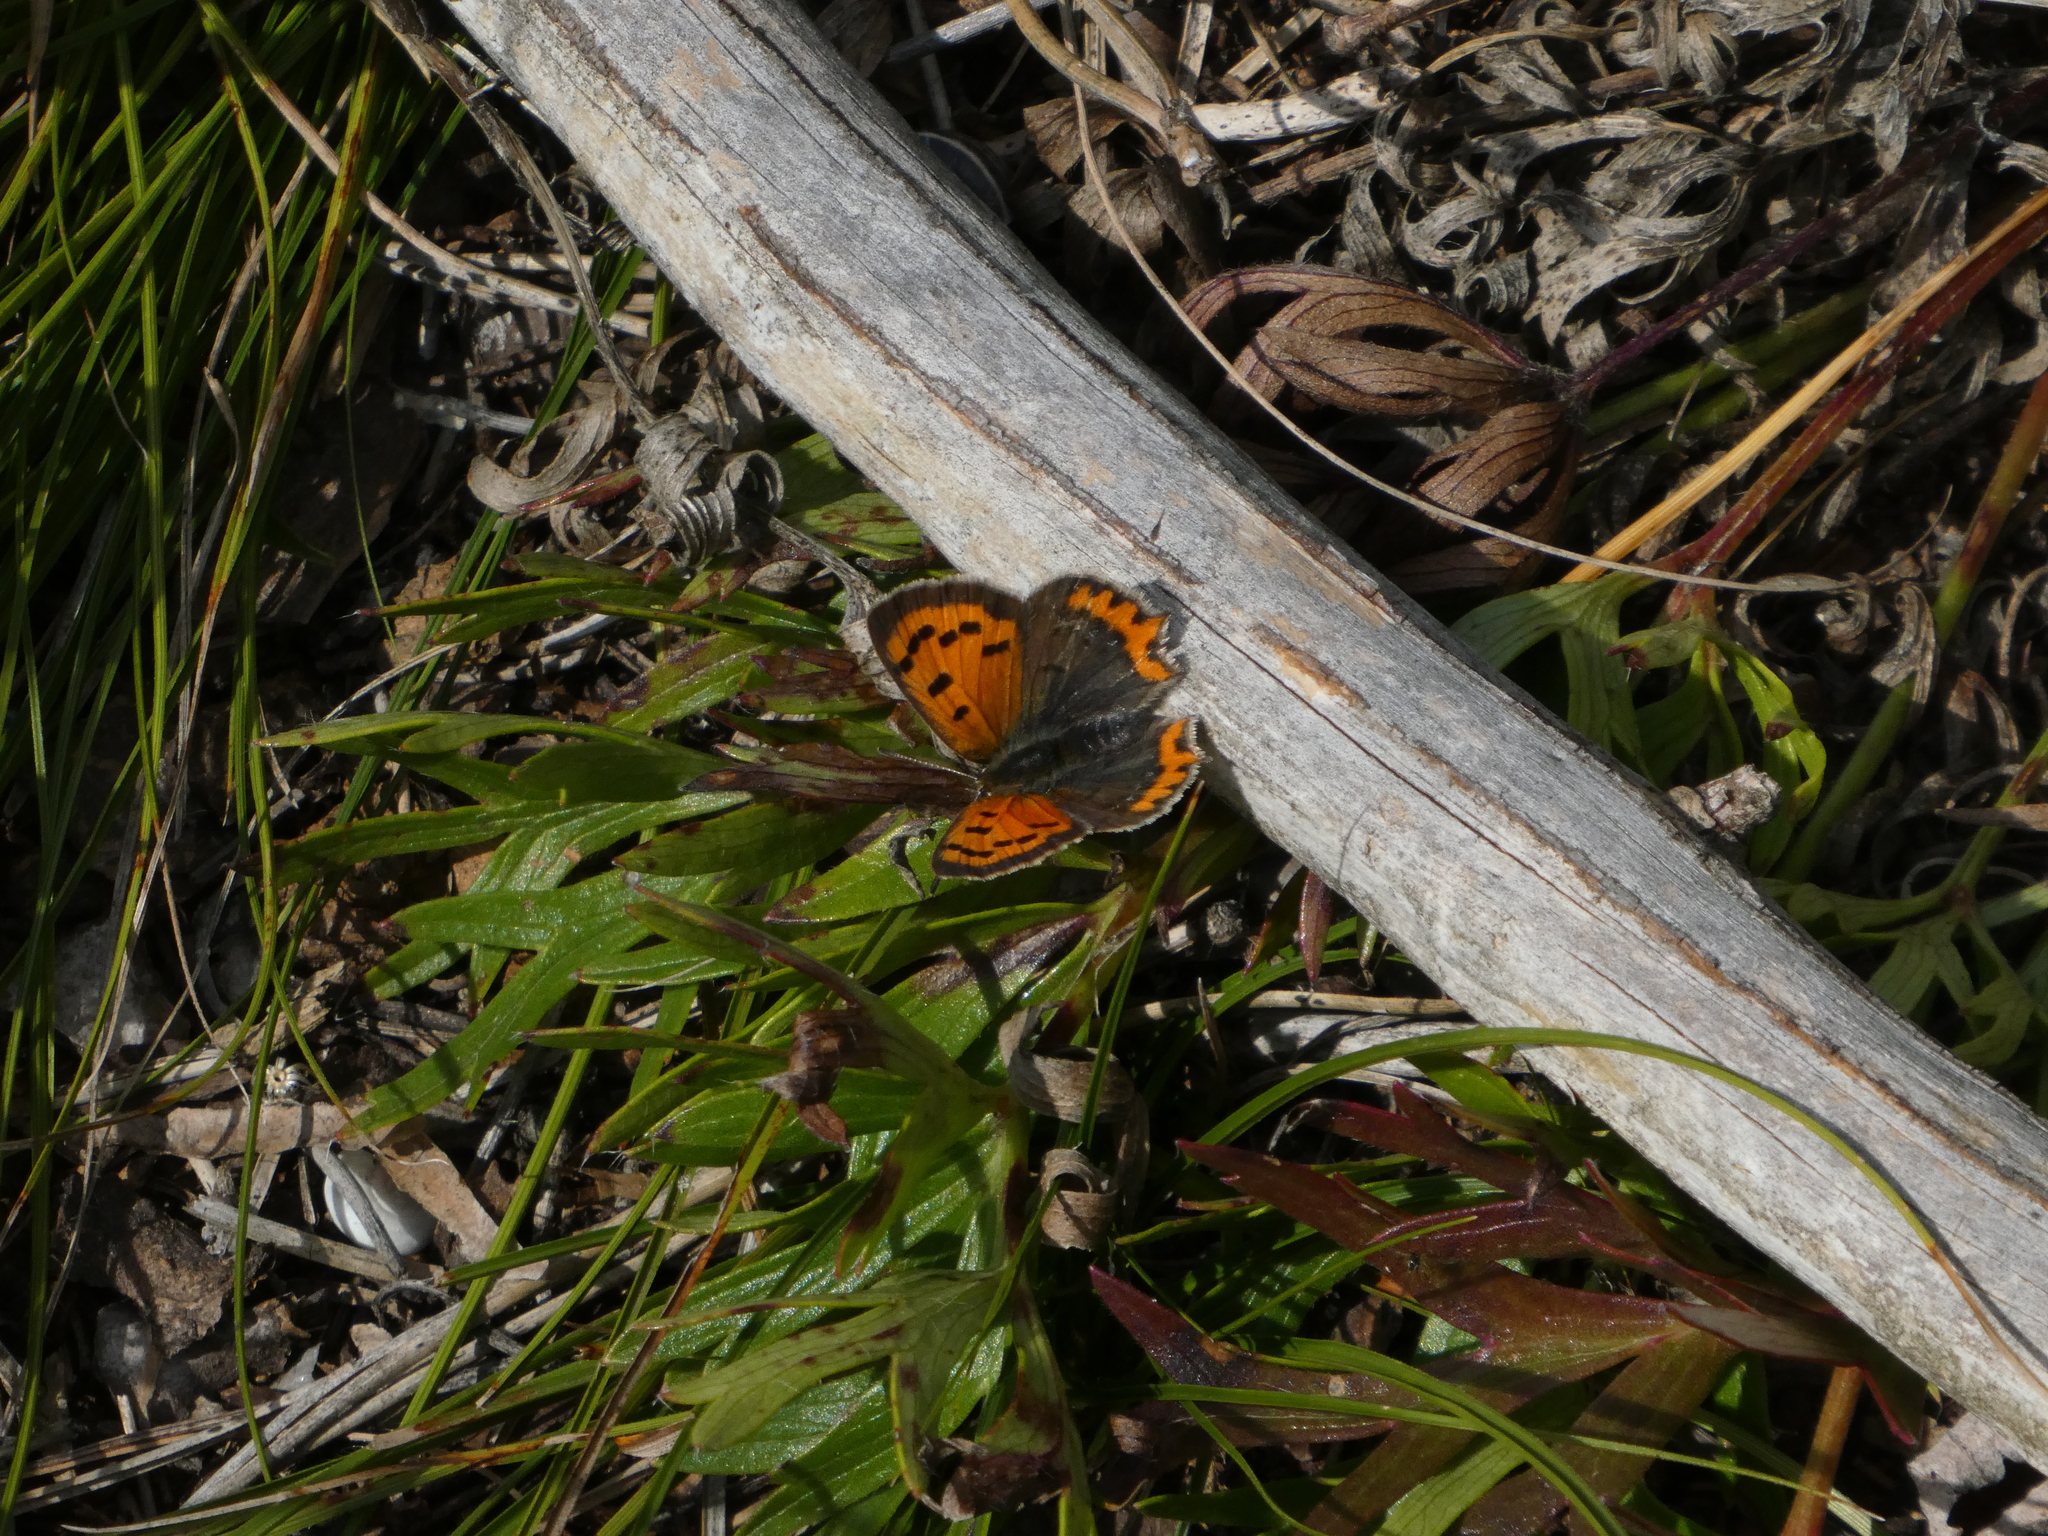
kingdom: Animalia
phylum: Arthropoda
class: Insecta
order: Lepidoptera
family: Lycaenidae
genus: Lycaena
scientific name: Lycaena phlaeas
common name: Small copper
